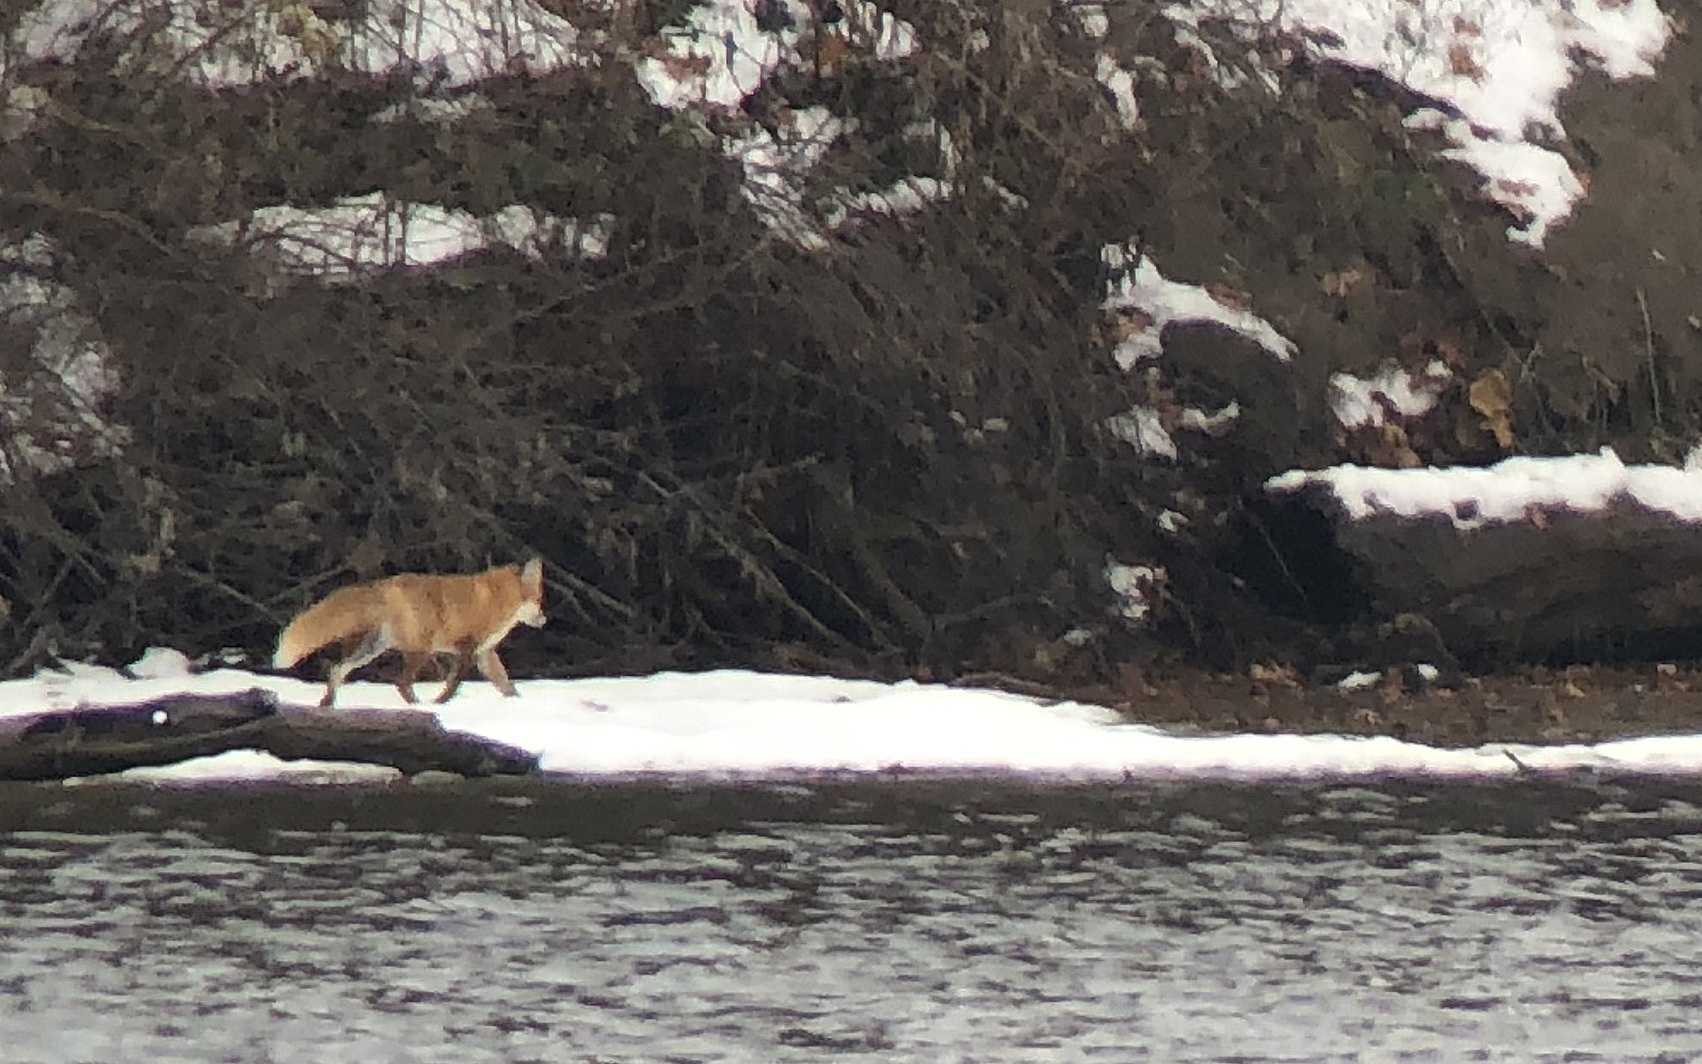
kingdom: Animalia
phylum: Chordata
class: Mammalia
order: Carnivora
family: Canidae
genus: Vulpes
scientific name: Vulpes vulpes
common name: Red fox
